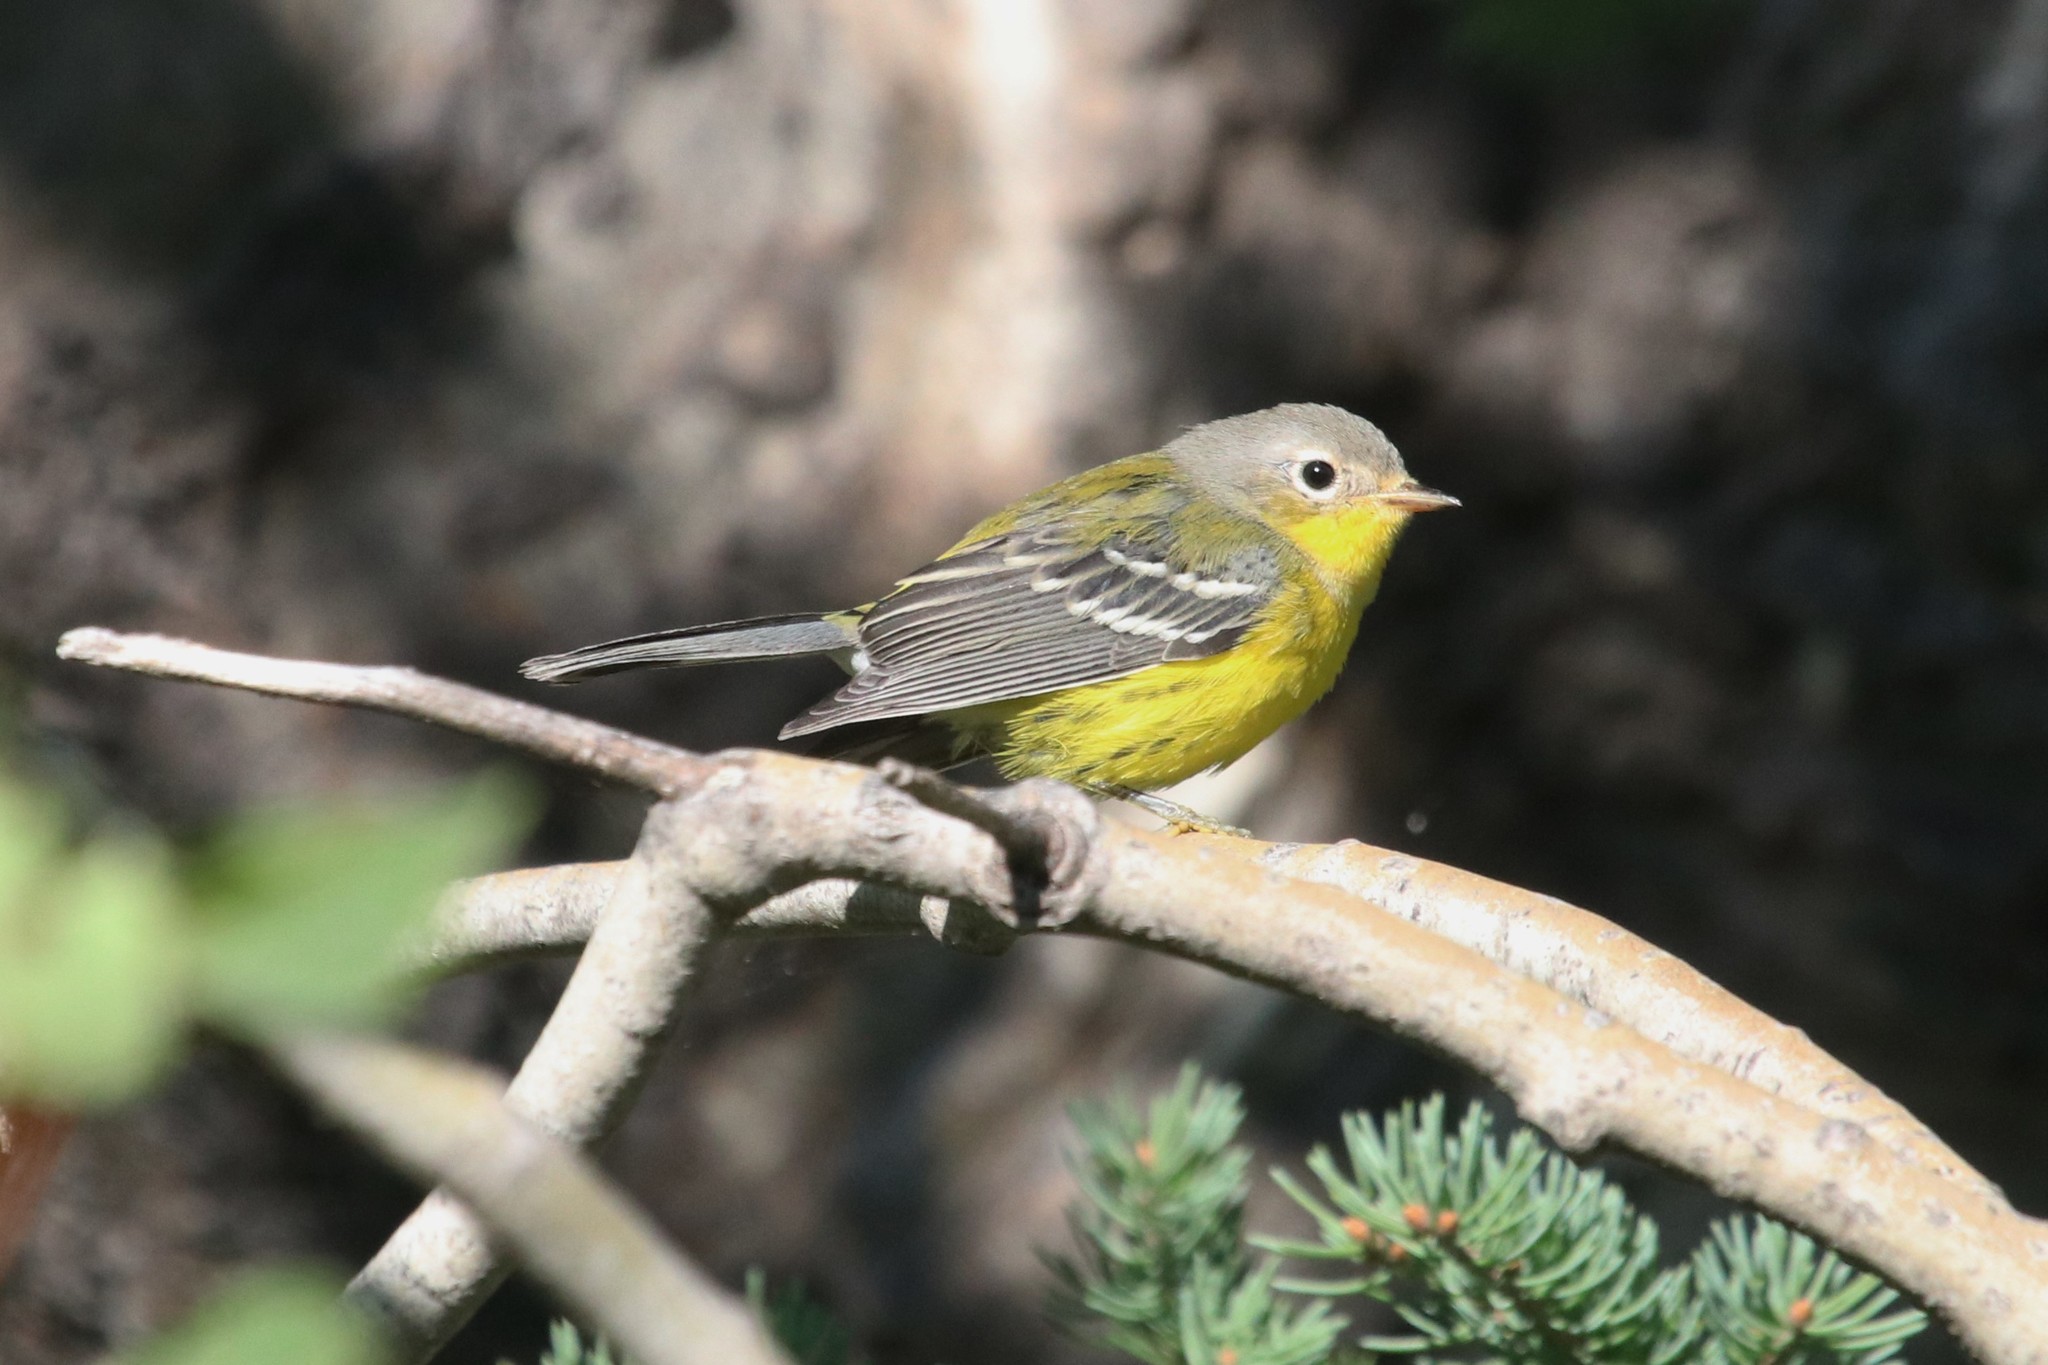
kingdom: Animalia
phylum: Chordata
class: Aves
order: Passeriformes
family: Parulidae
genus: Setophaga
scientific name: Setophaga magnolia
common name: Magnolia warbler
